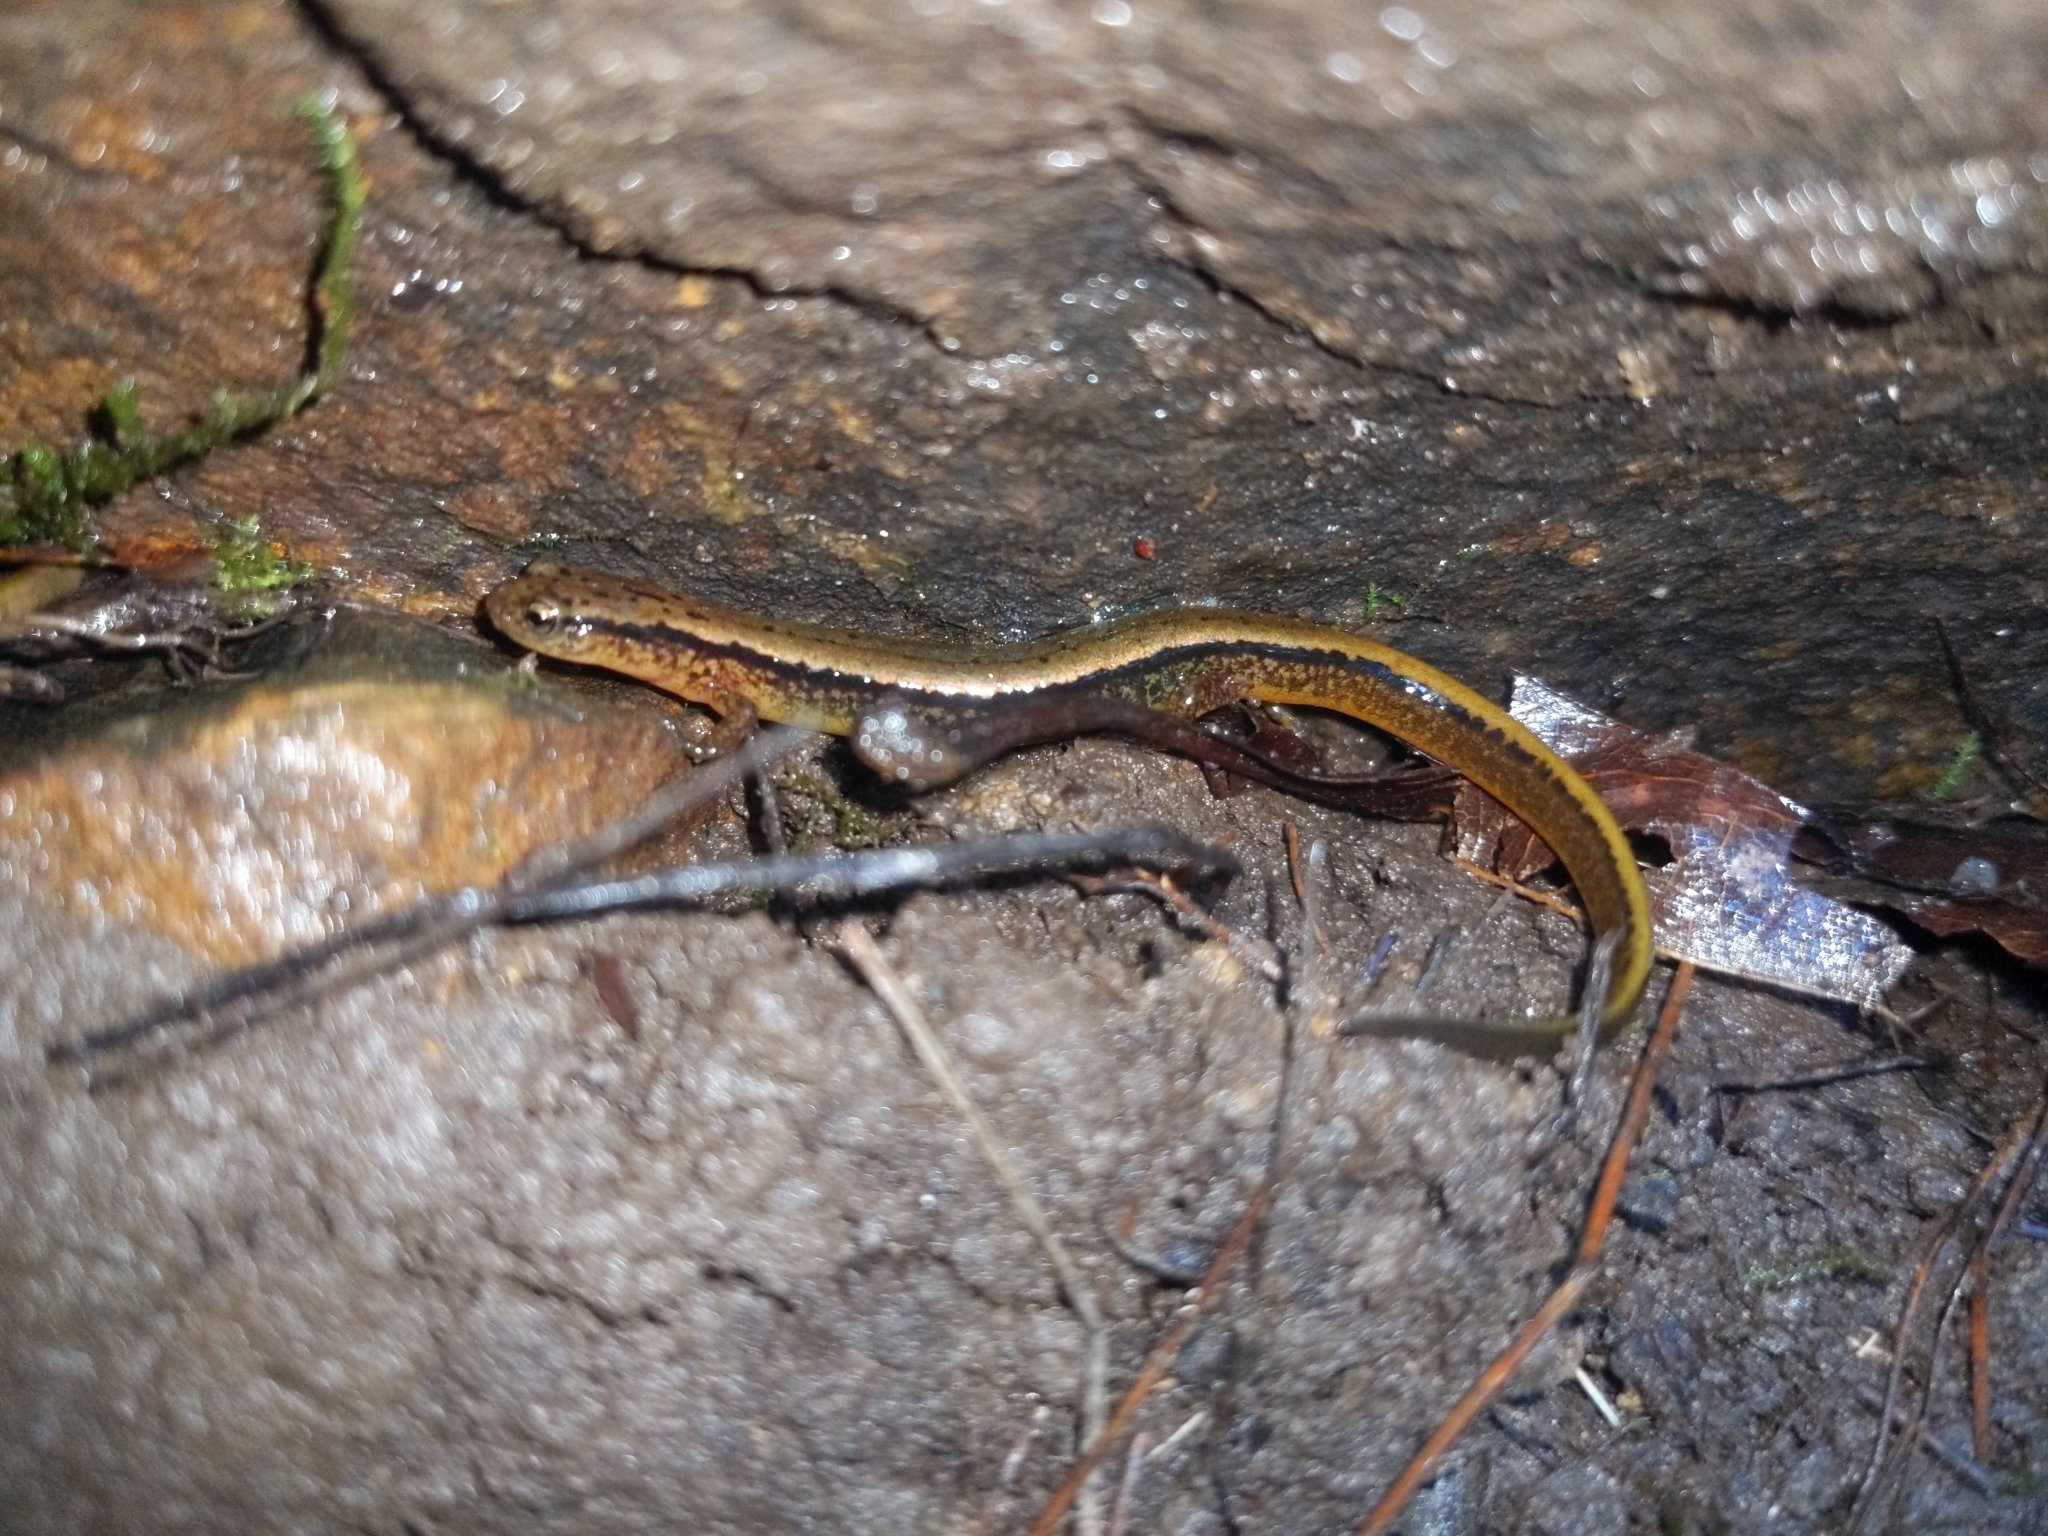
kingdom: Animalia
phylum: Chordata
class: Amphibia
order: Caudata
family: Plethodontidae
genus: Eurycea
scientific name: Eurycea bislineata
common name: Northern two-lined salamander
